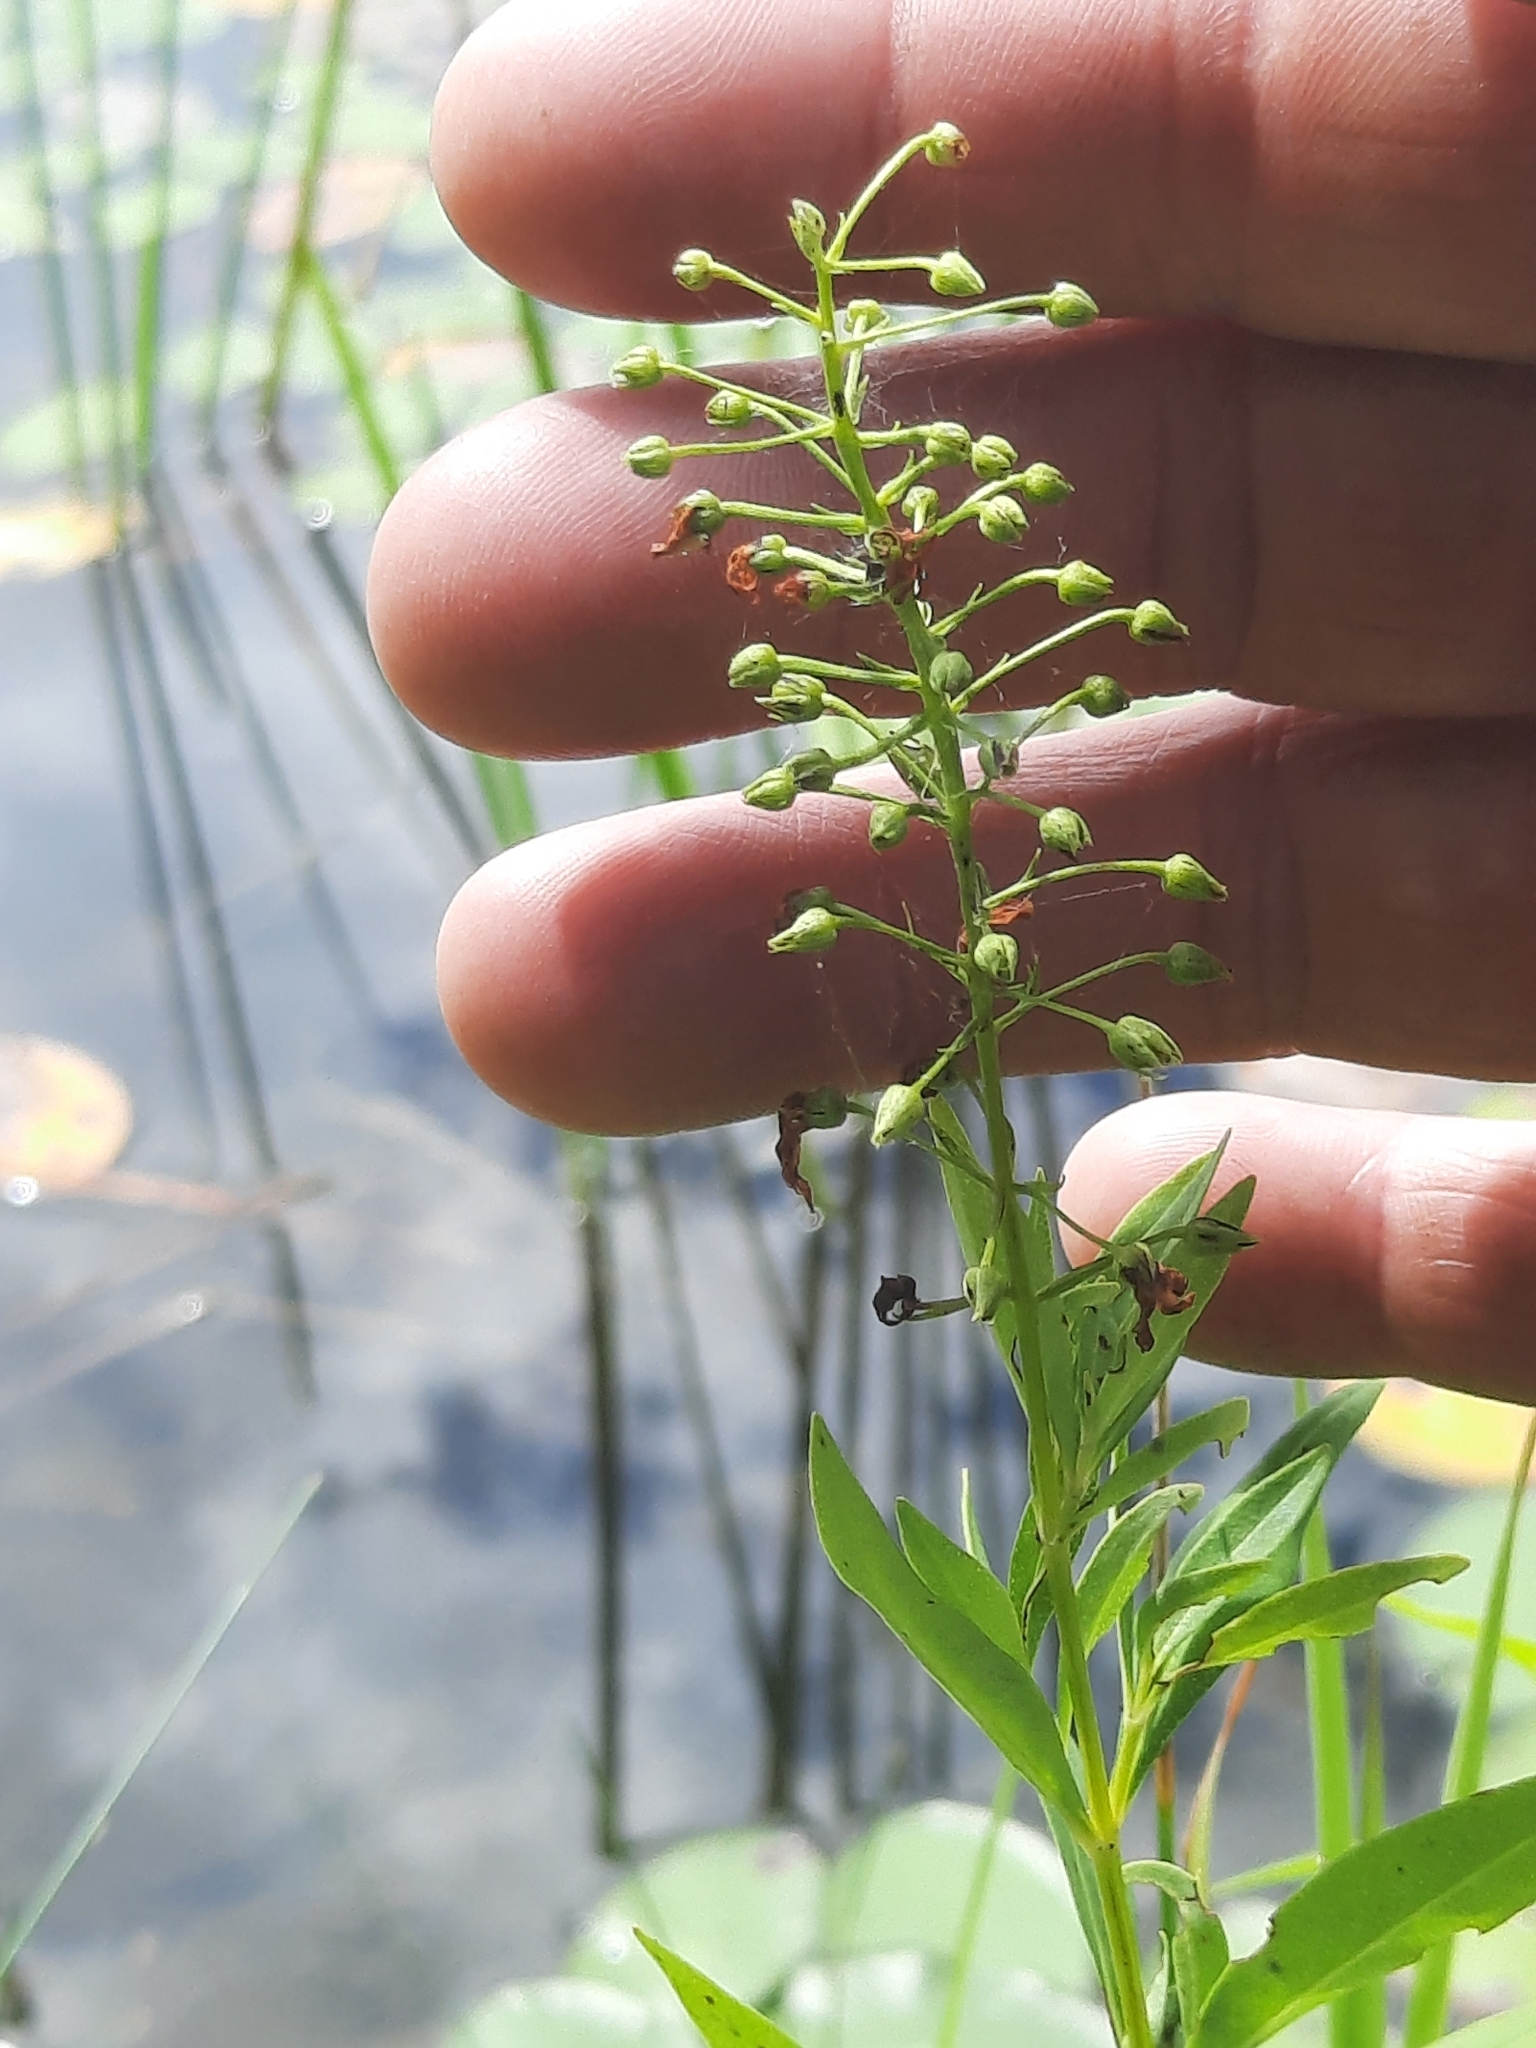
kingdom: Plantae
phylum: Tracheophyta
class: Magnoliopsida
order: Ericales
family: Primulaceae
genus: Lysimachia
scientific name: Lysimachia terrestris
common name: Lake loosestrife
